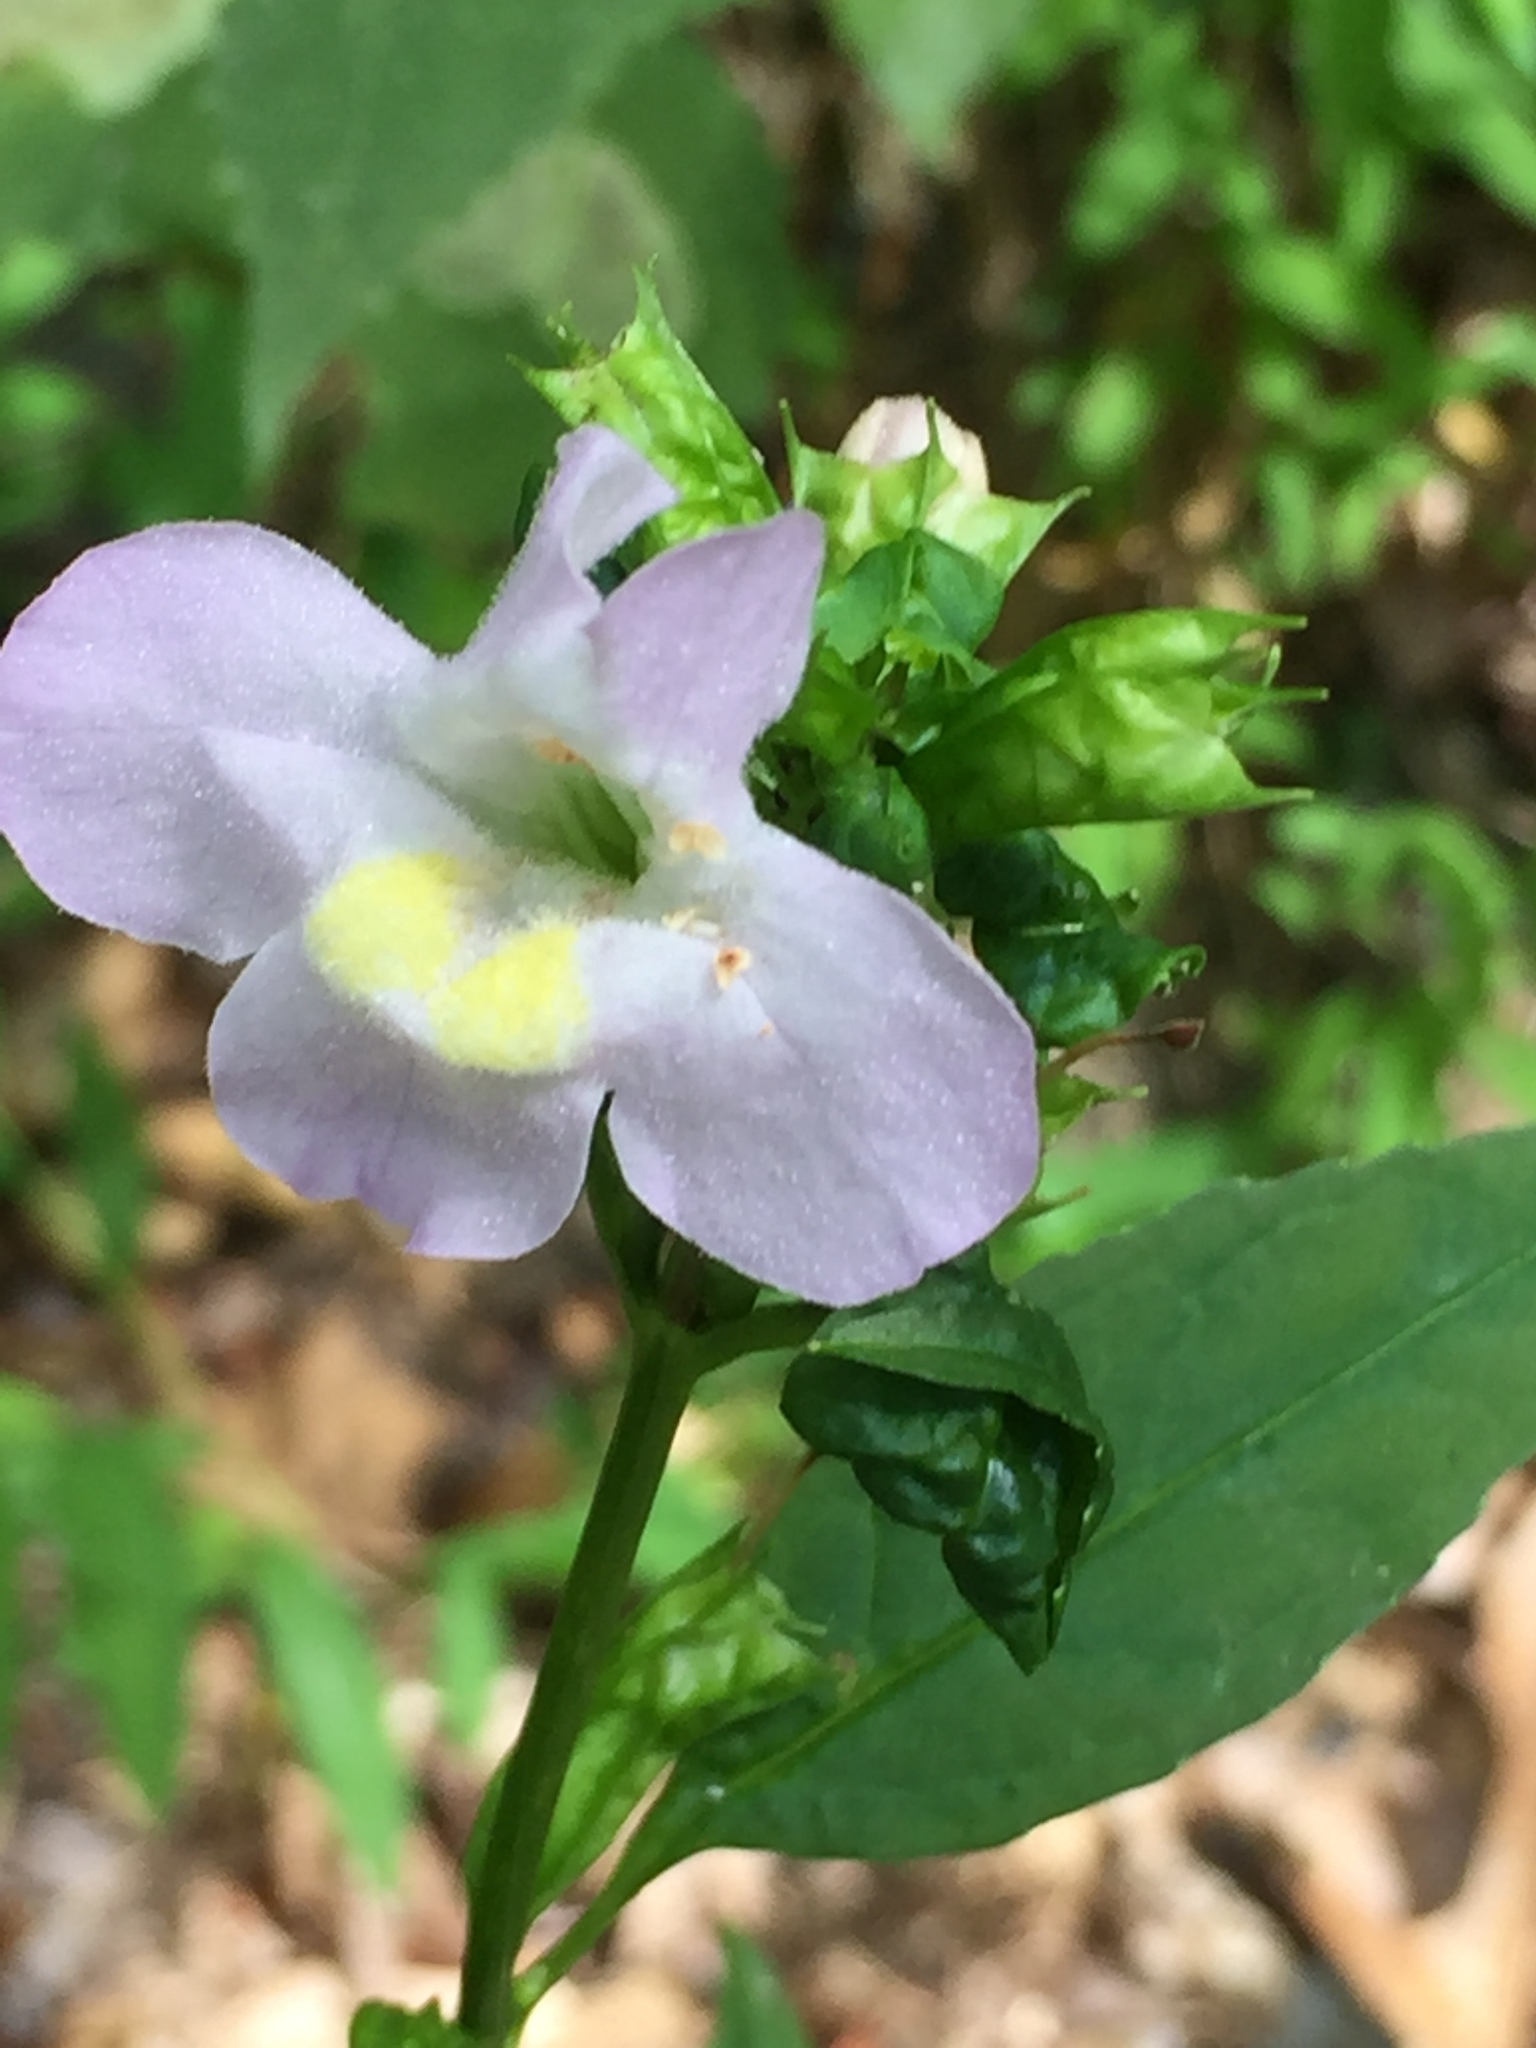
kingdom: Plantae
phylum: Tracheophyta
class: Magnoliopsida
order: Lamiales
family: Phrymaceae
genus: Mimulus
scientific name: Mimulus alatus
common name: Sharp-wing monkey-flower
